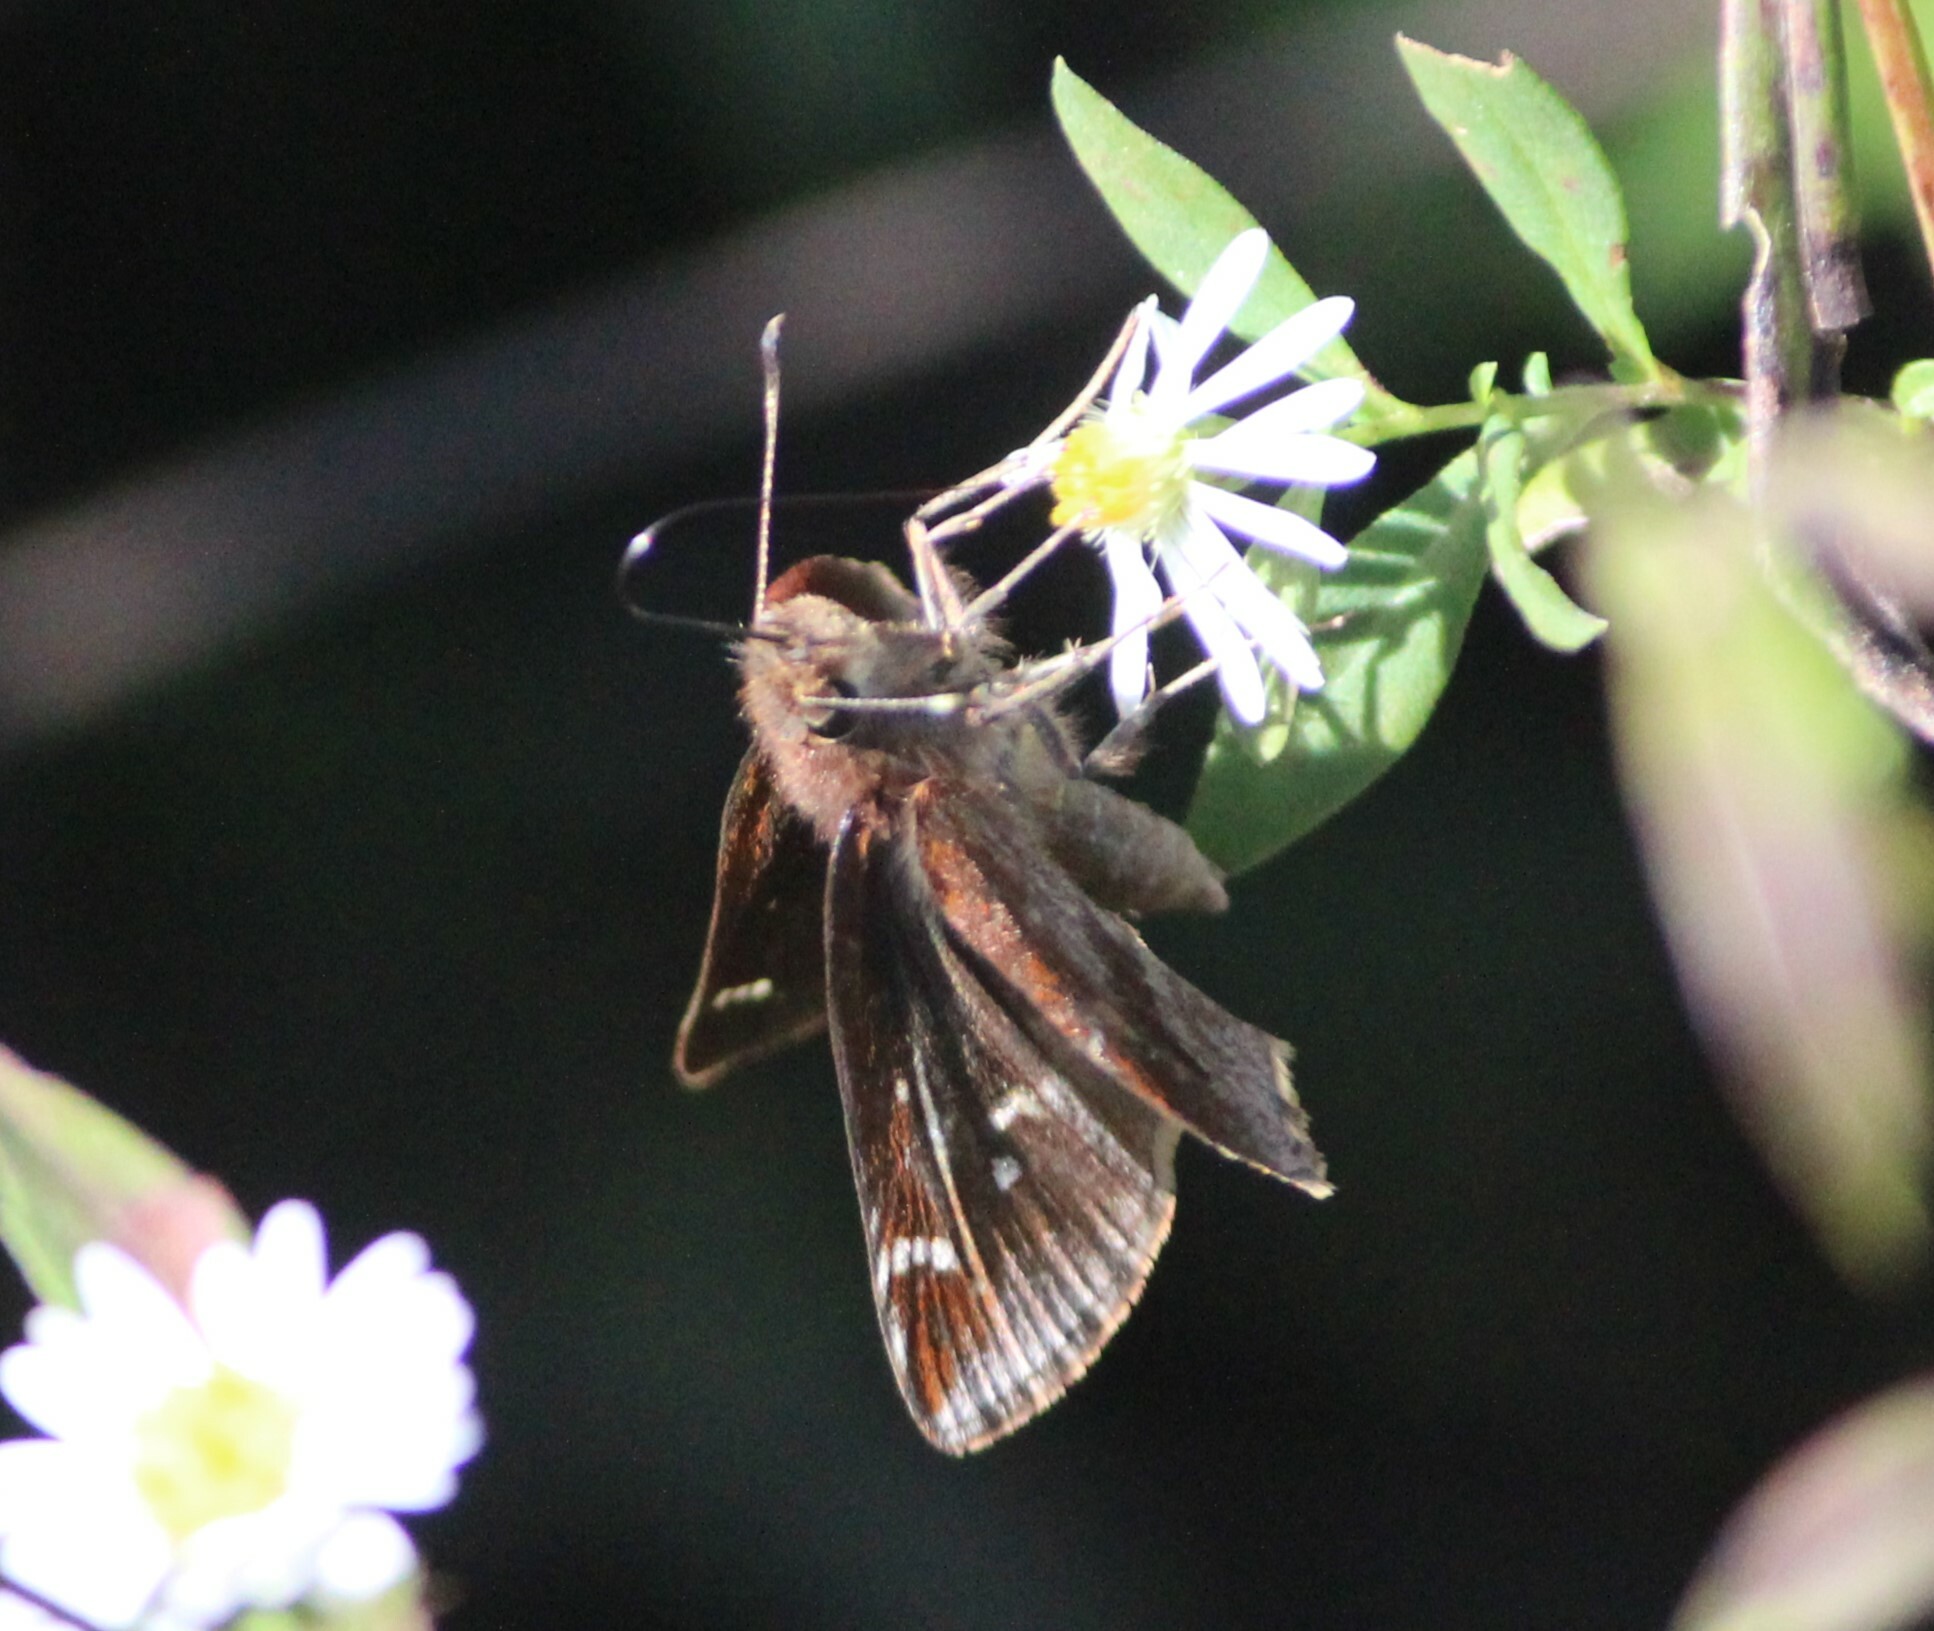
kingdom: Animalia
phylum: Arthropoda
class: Insecta
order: Lepidoptera
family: Hesperiidae
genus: Lerema
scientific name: Lerema accius
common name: Clouded skipper
